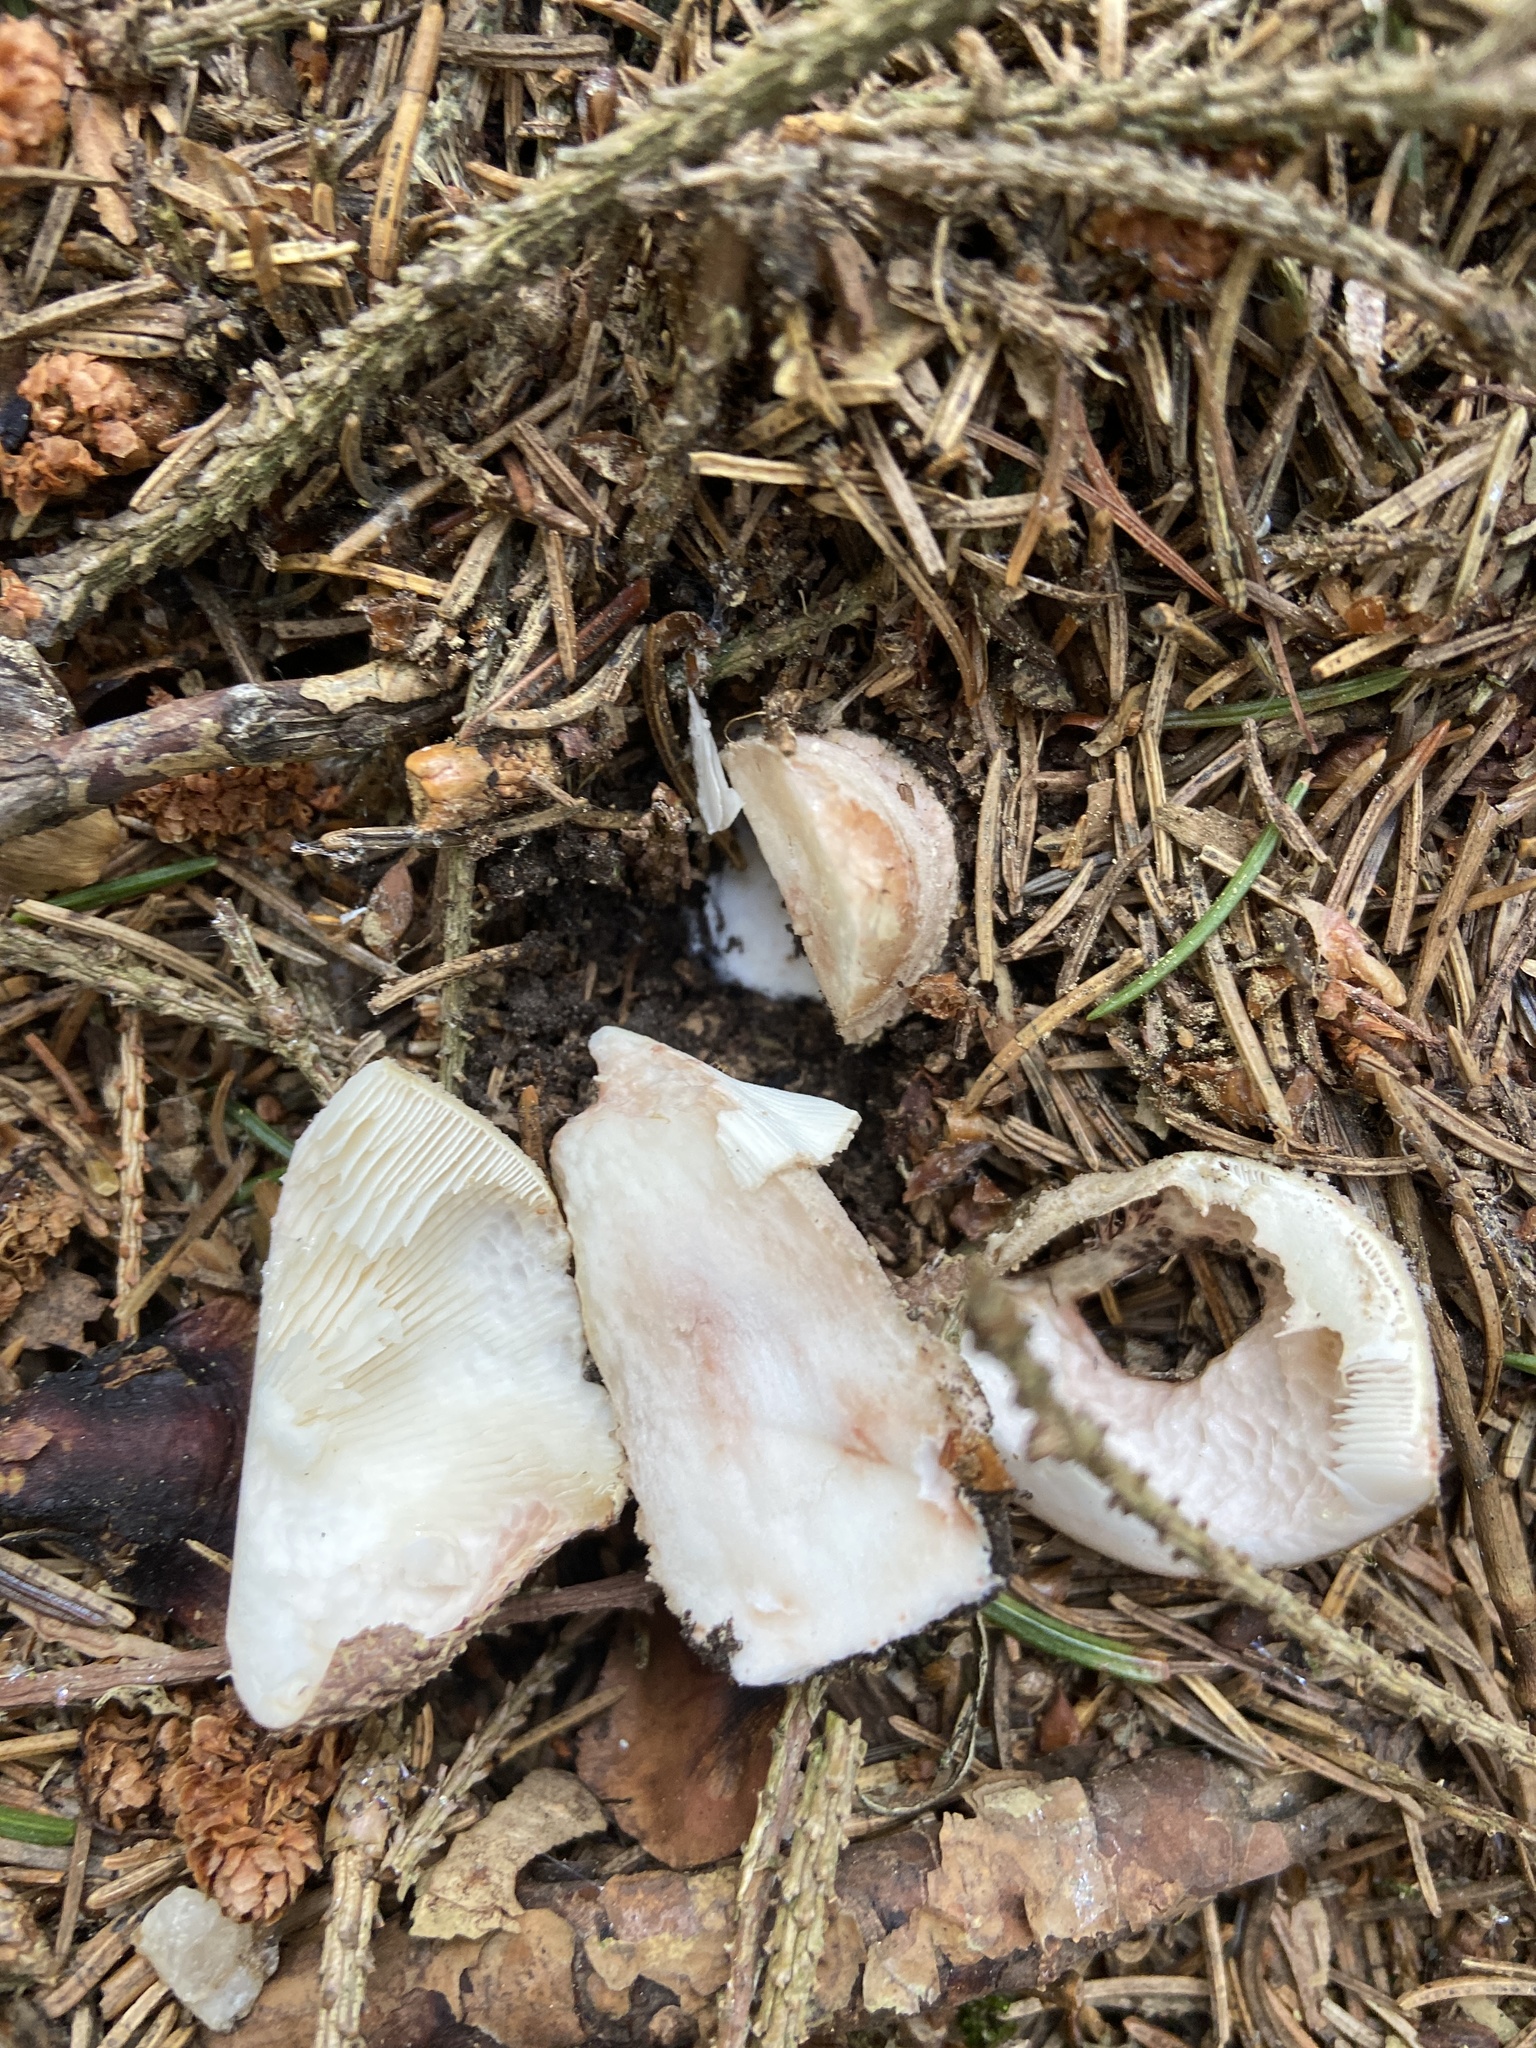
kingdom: Fungi
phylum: Basidiomycota
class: Agaricomycetes
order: Agaricales
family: Amanitaceae
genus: Amanita
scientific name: Amanita rubescens
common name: Blusher
